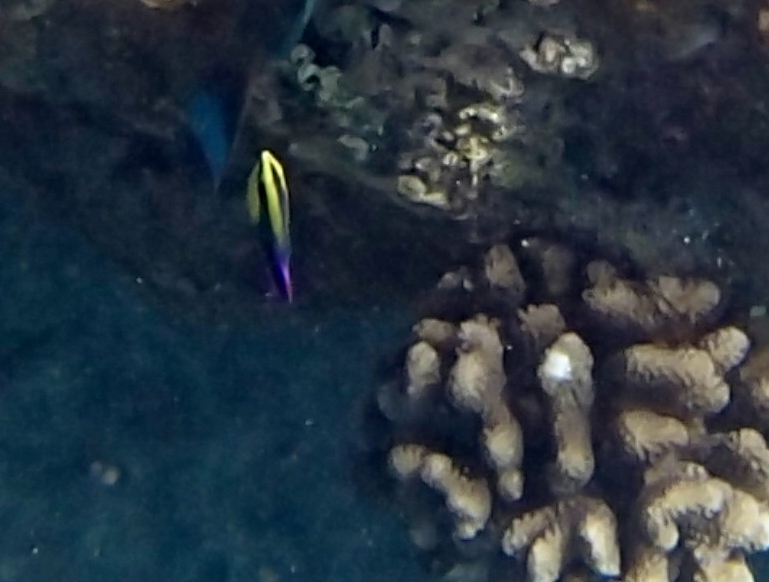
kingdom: Animalia
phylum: Chordata
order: Perciformes
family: Labridae
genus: Labroides
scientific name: Labroides phthirophagus
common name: Cleaner wrasse
